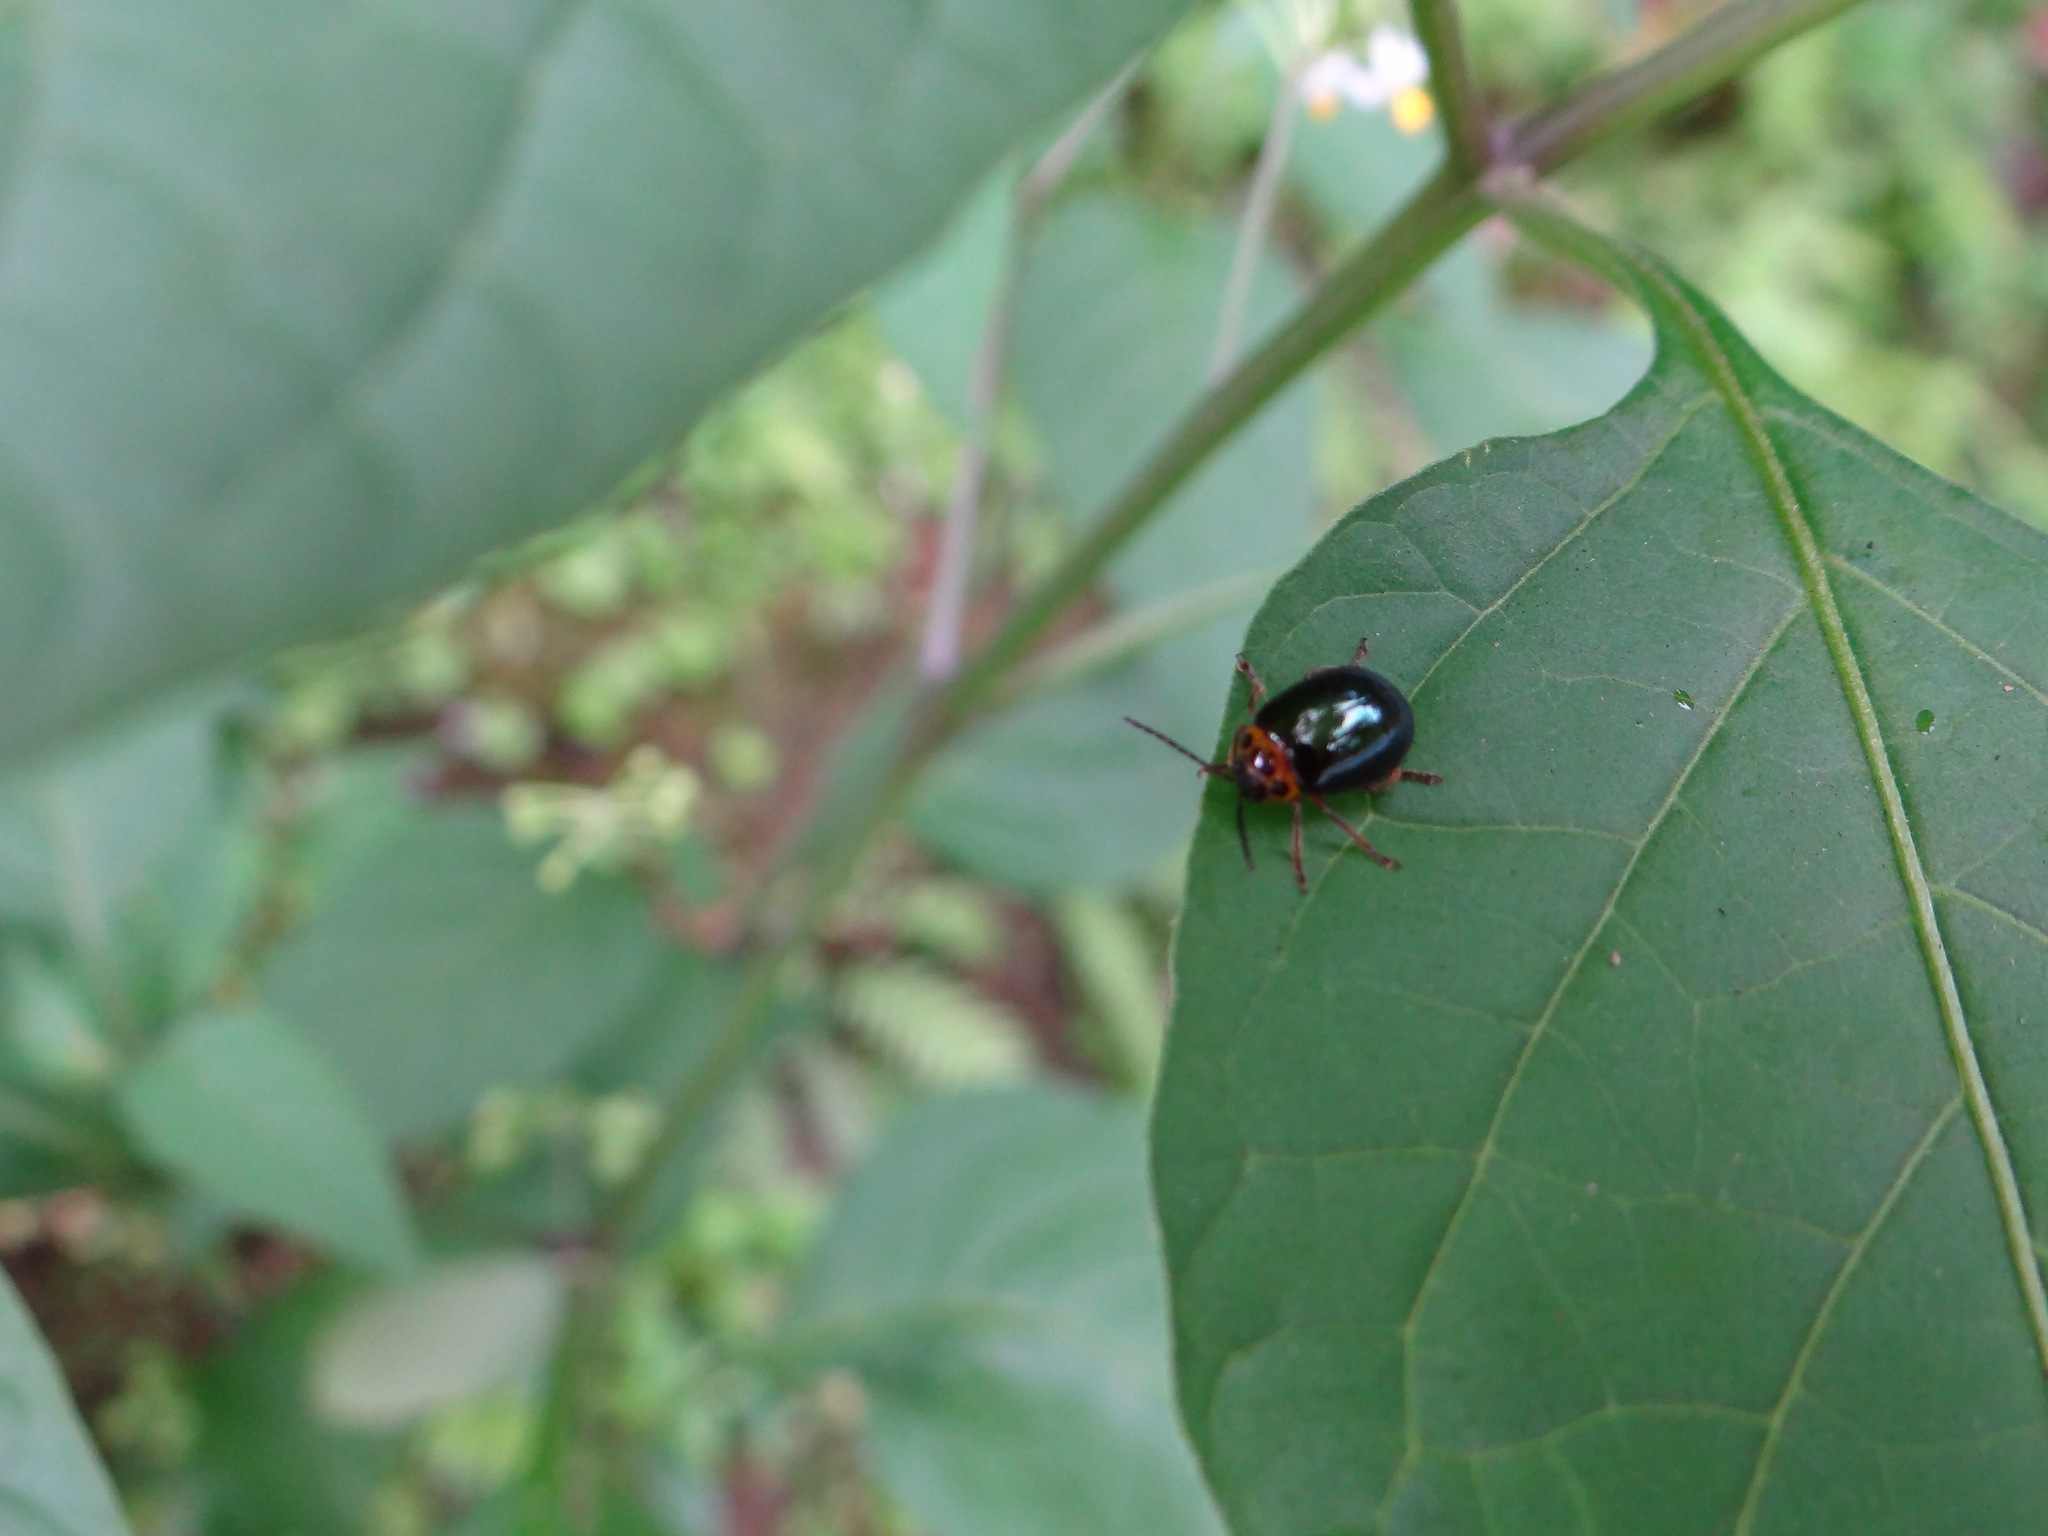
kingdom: Animalia
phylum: Arthropoda
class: Insecta
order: Coleoptera
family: Chrysomelidae
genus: Morphosphaera
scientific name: Morphosphaera chrysomeloides
